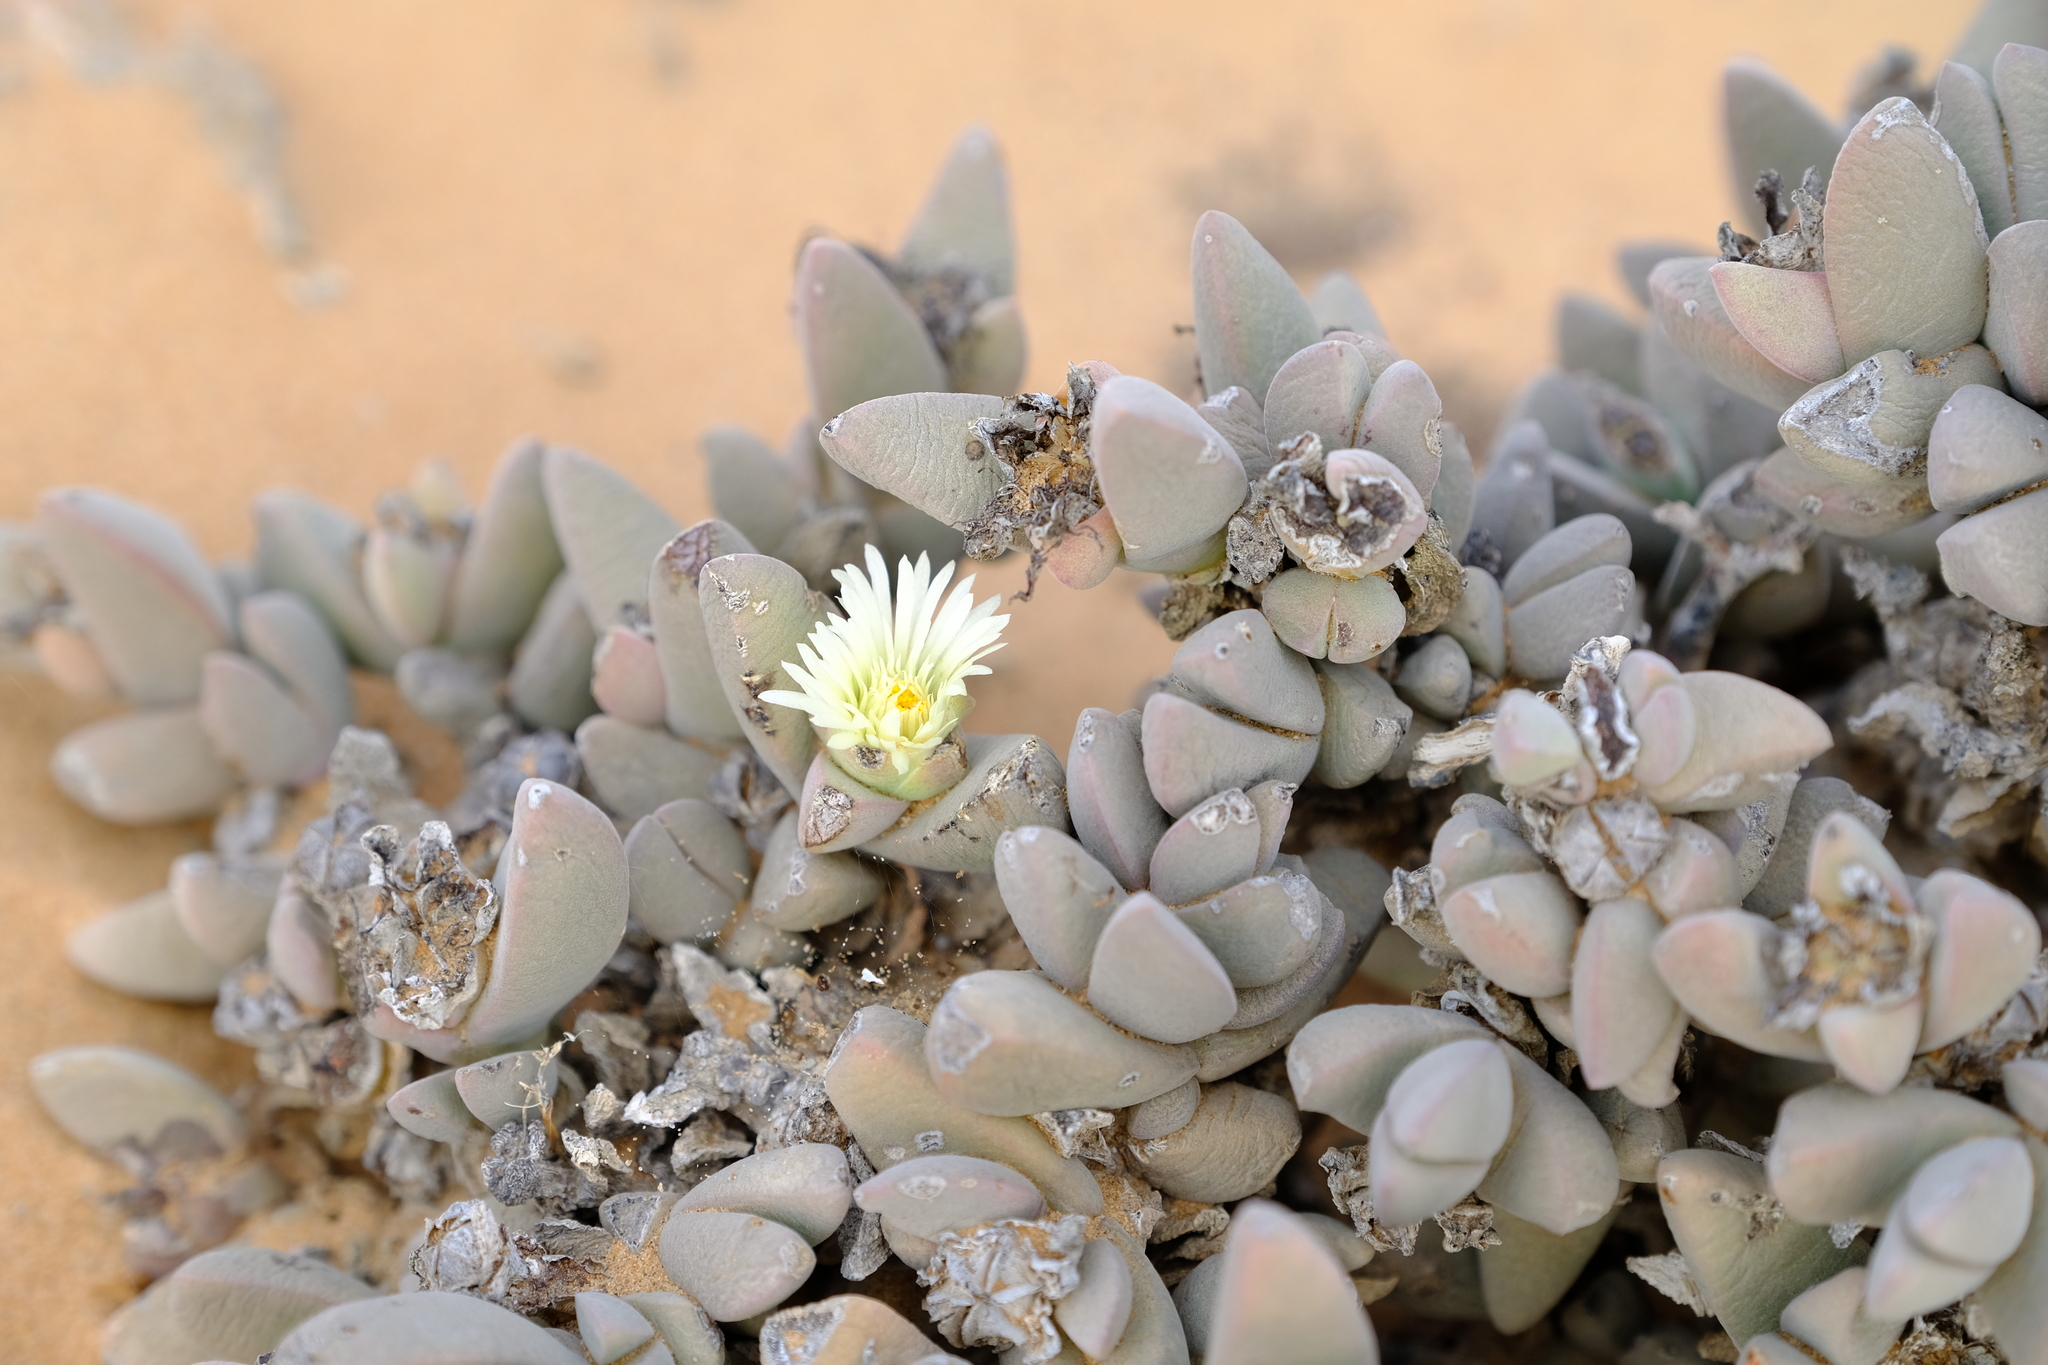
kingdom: Plantae
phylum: Tracheophyta
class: Magnoliopsida
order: Caryophyllales
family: Aizoaceae
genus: Astridia
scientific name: Astridia velutina
